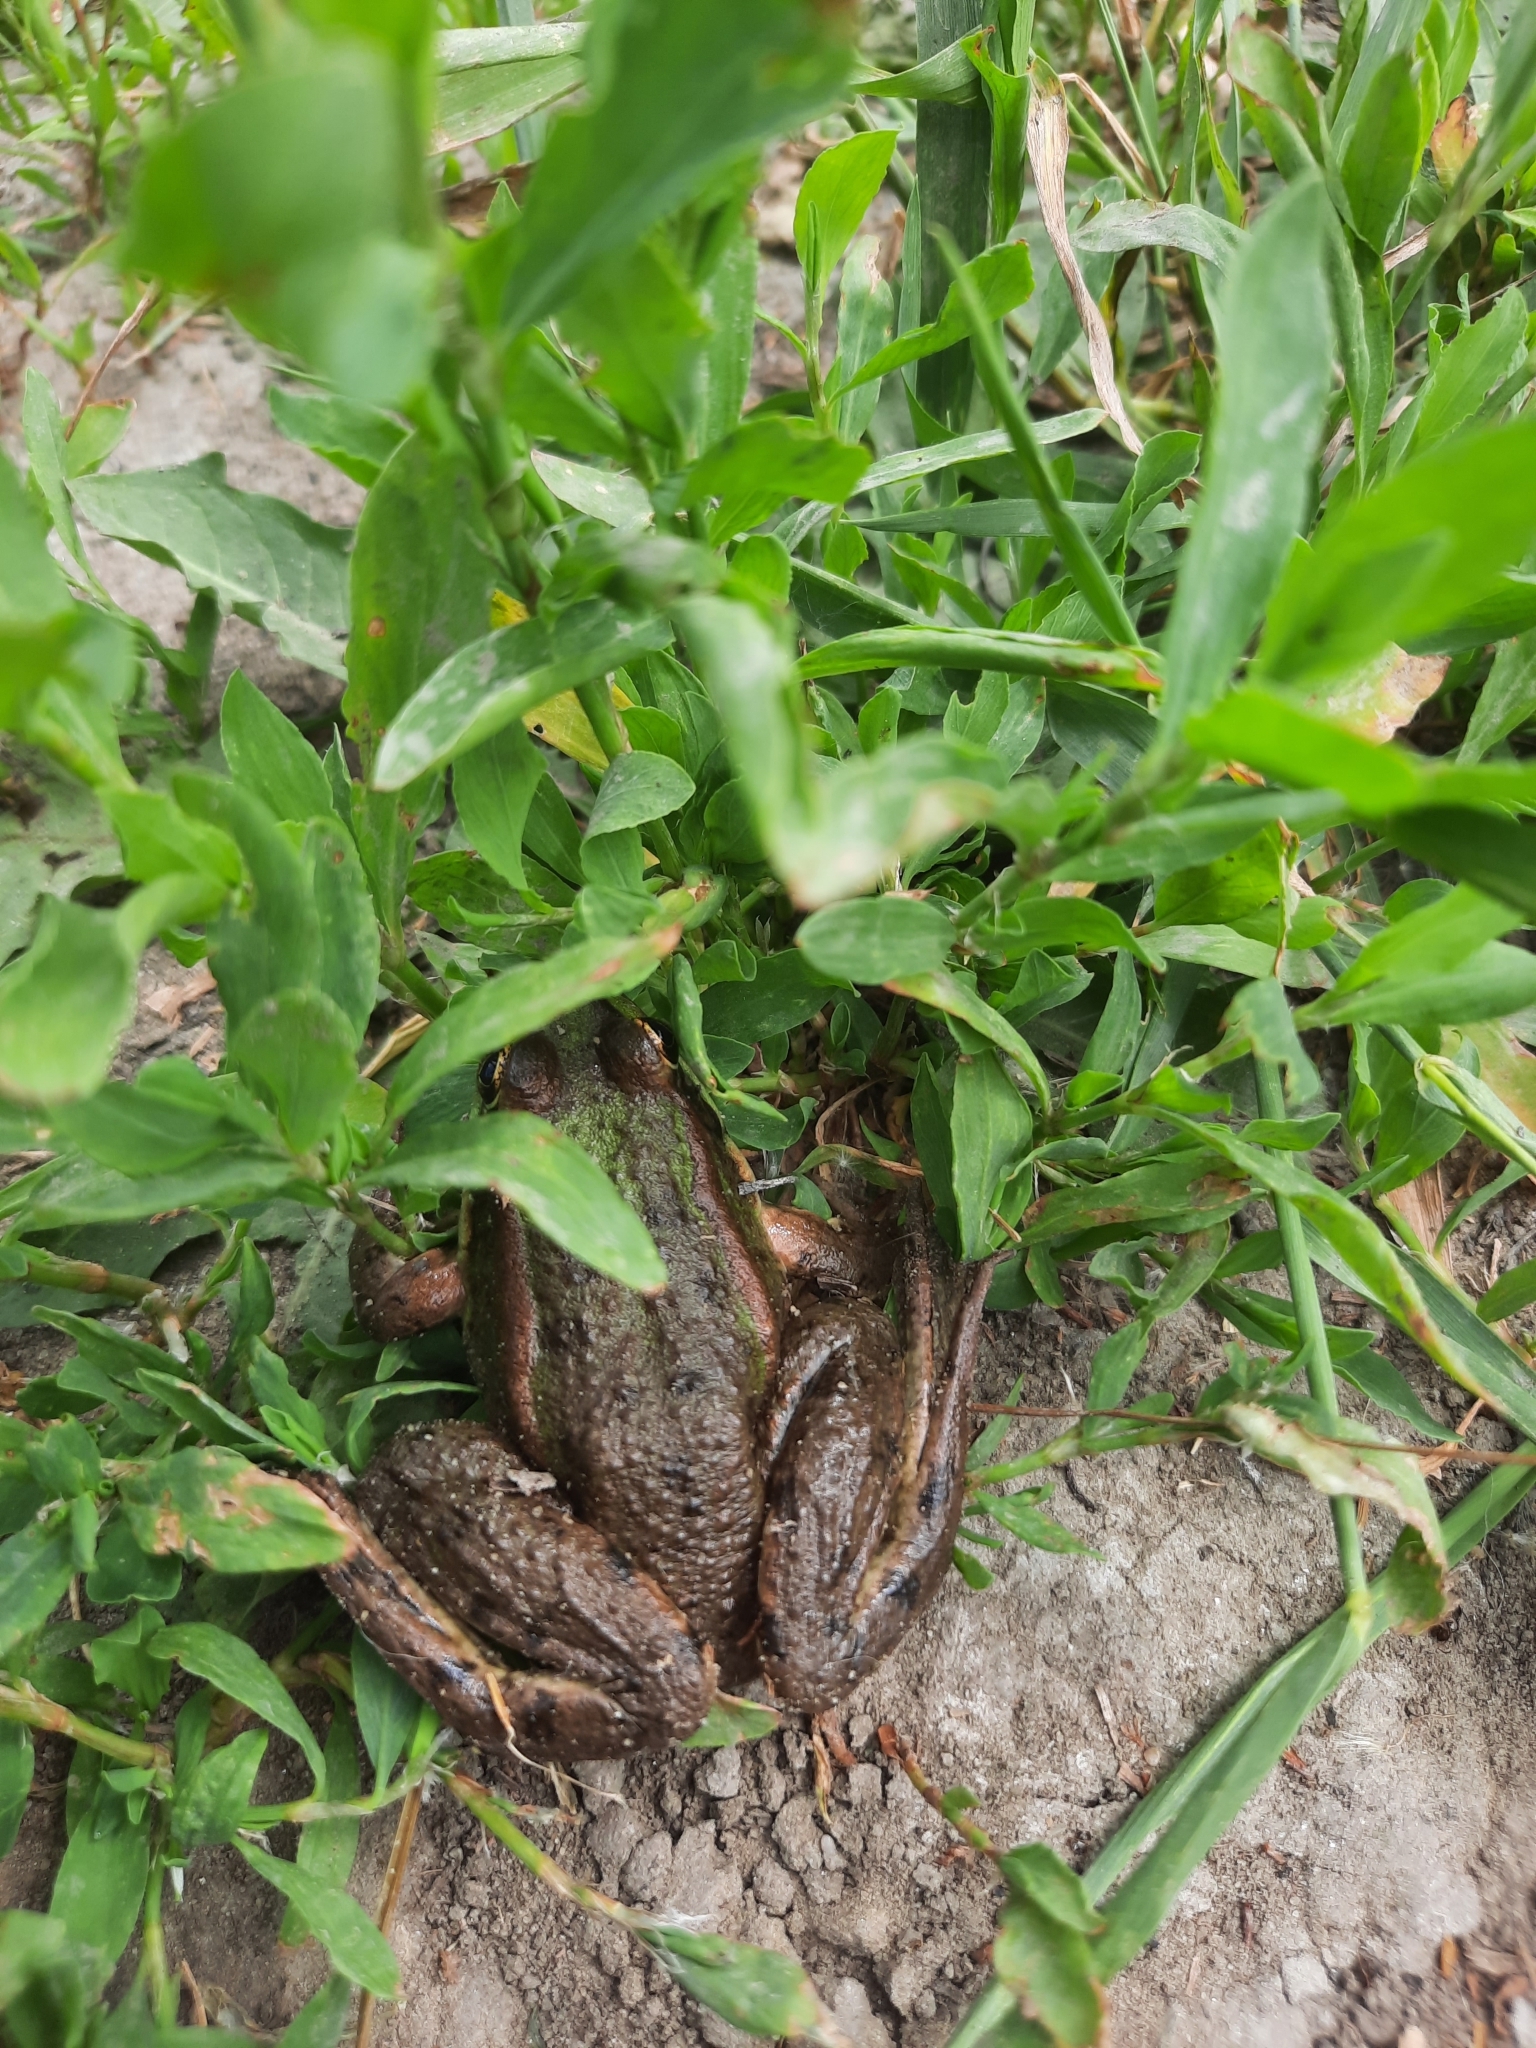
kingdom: Animalia
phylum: Chordata
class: Amphibia
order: Anura
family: Ranidae
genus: Pelophylax
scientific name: Pelophylax ridibundus
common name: Marsh frog
